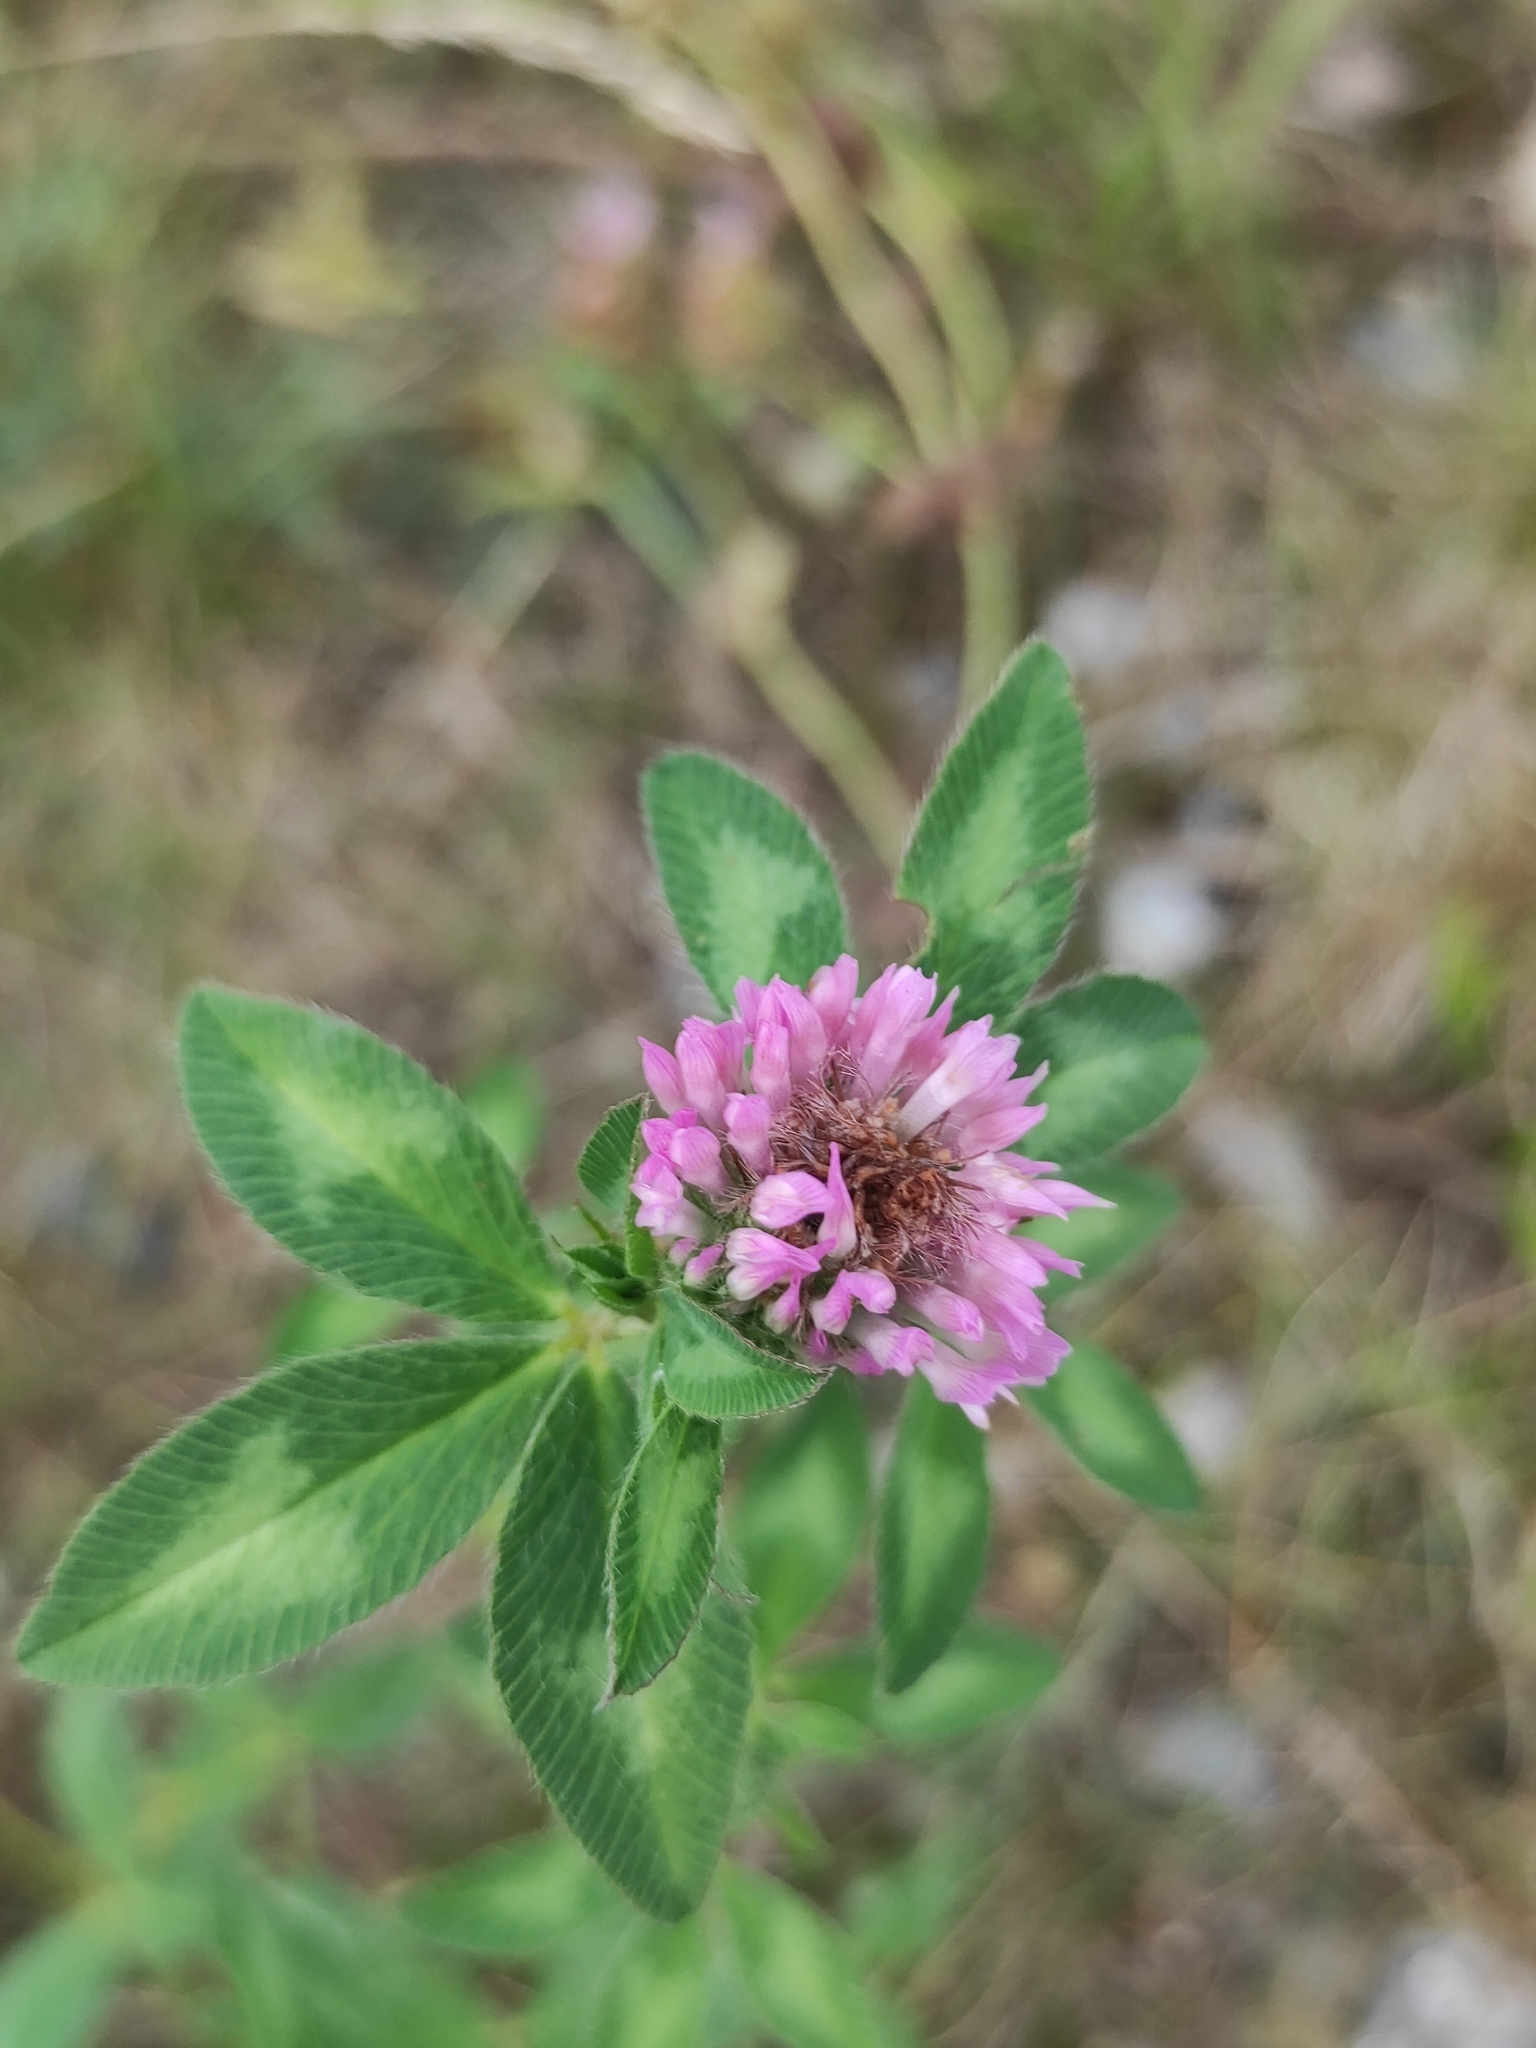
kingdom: Plantae
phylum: Tracheophyta
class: Magnoliopsida
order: Fabales
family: Fabaceae
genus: Trifolium
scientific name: Trifolium pratense
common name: Red clover
